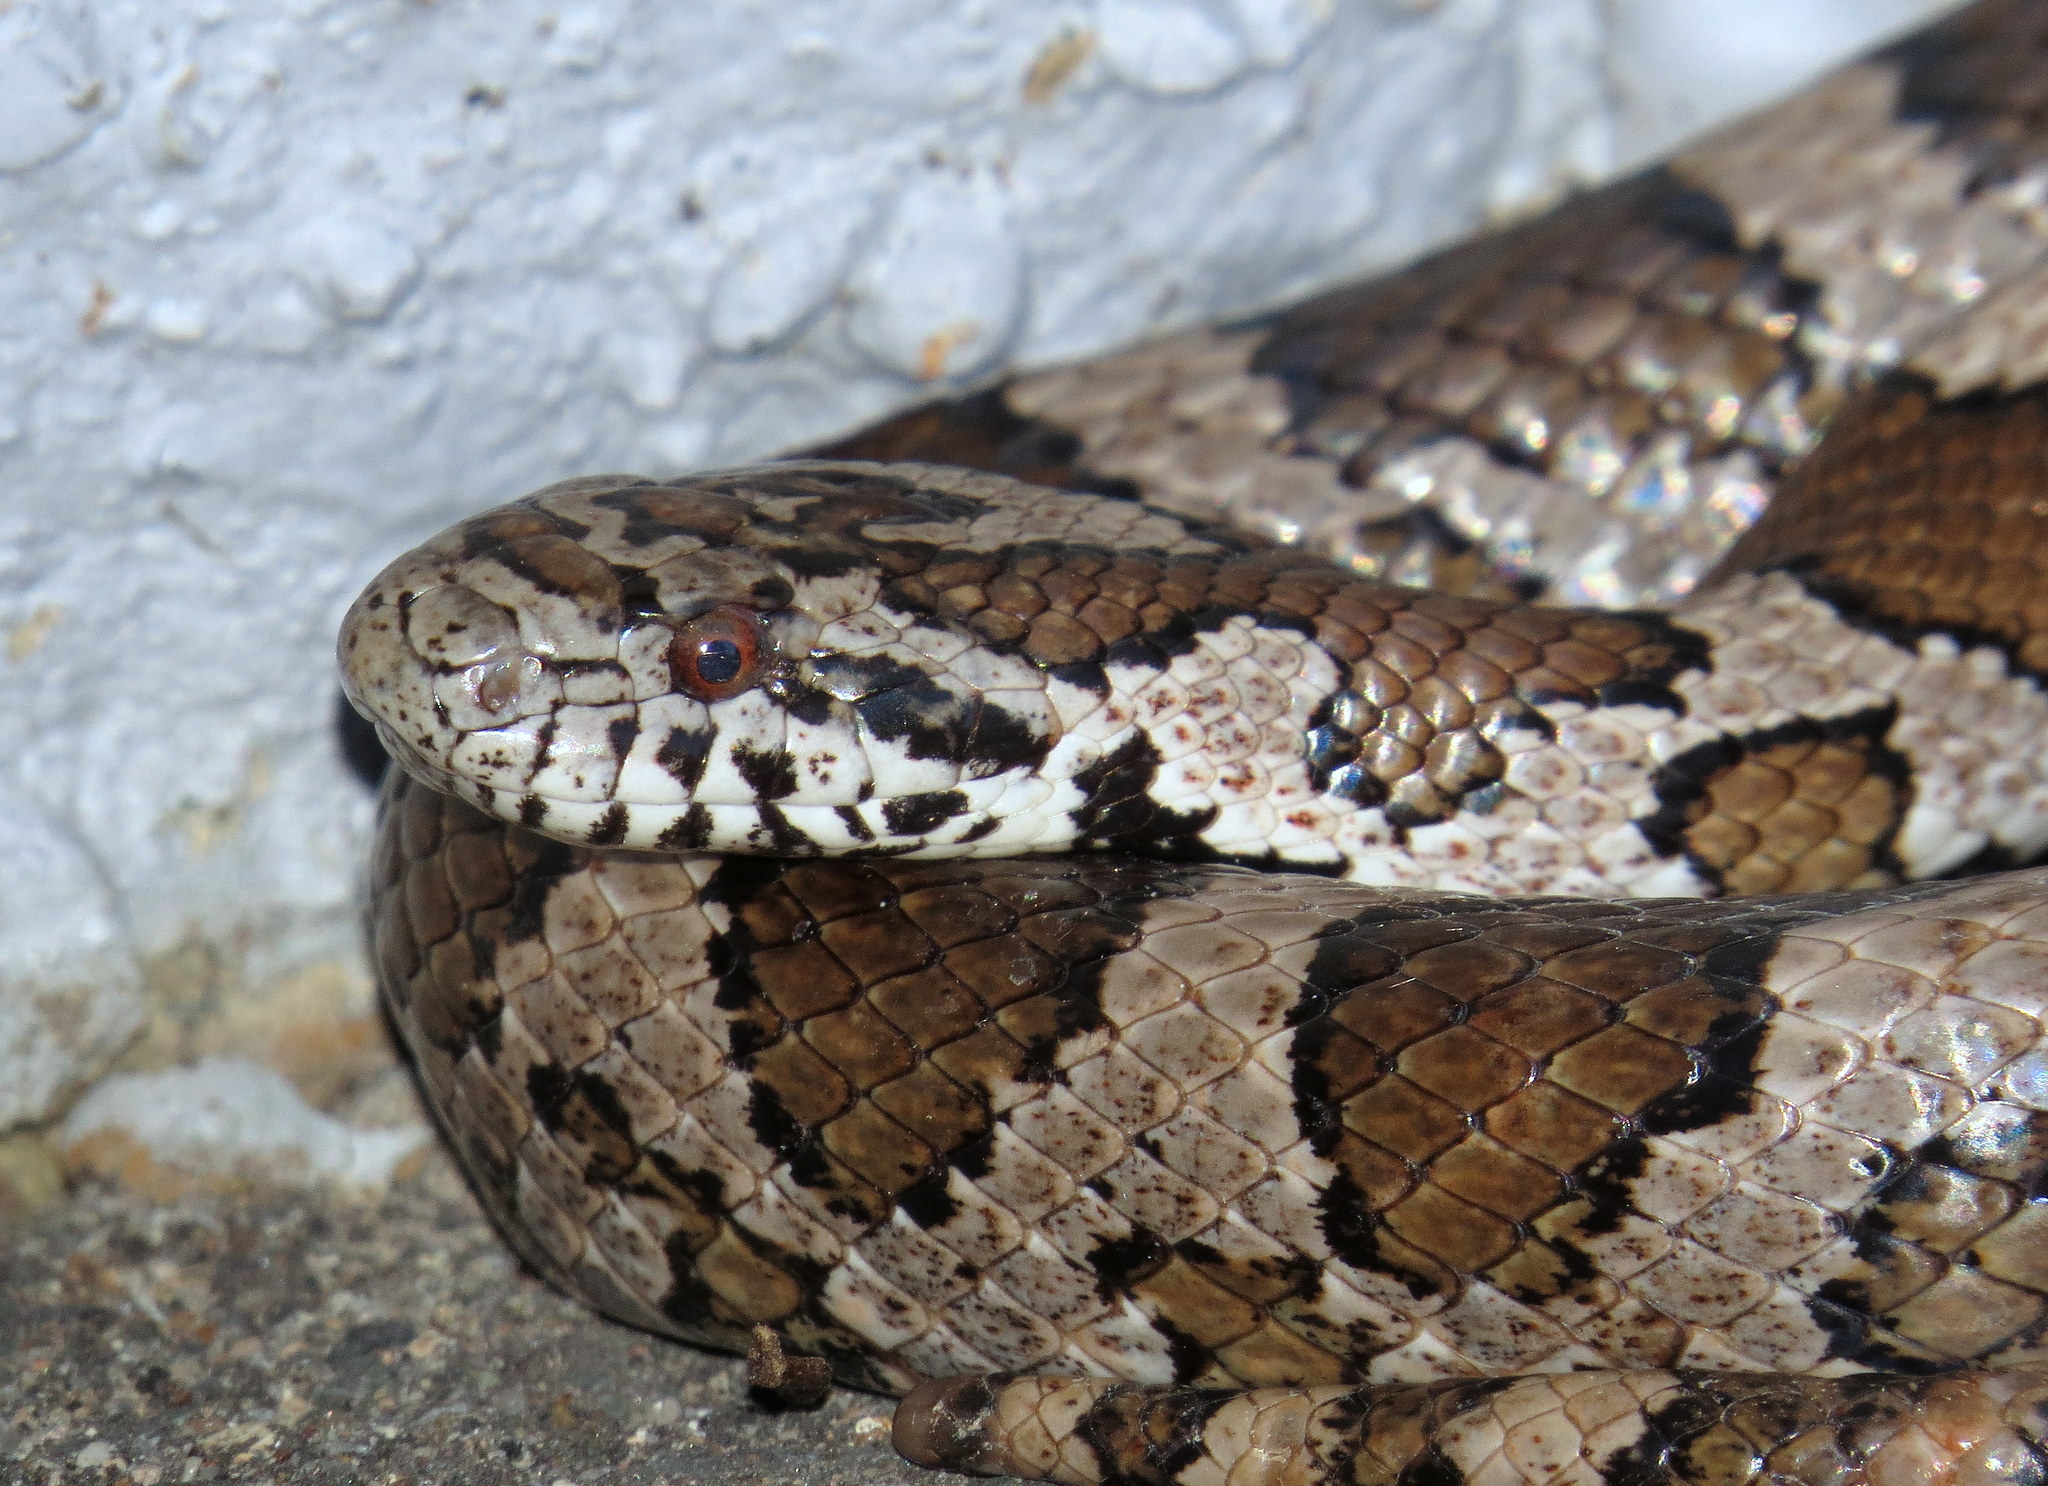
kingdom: Animalia
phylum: Chordata
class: Squamata
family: Colubridae
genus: Lampropeltis
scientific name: Lampropeltis triangulum
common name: Eastern milksnake
